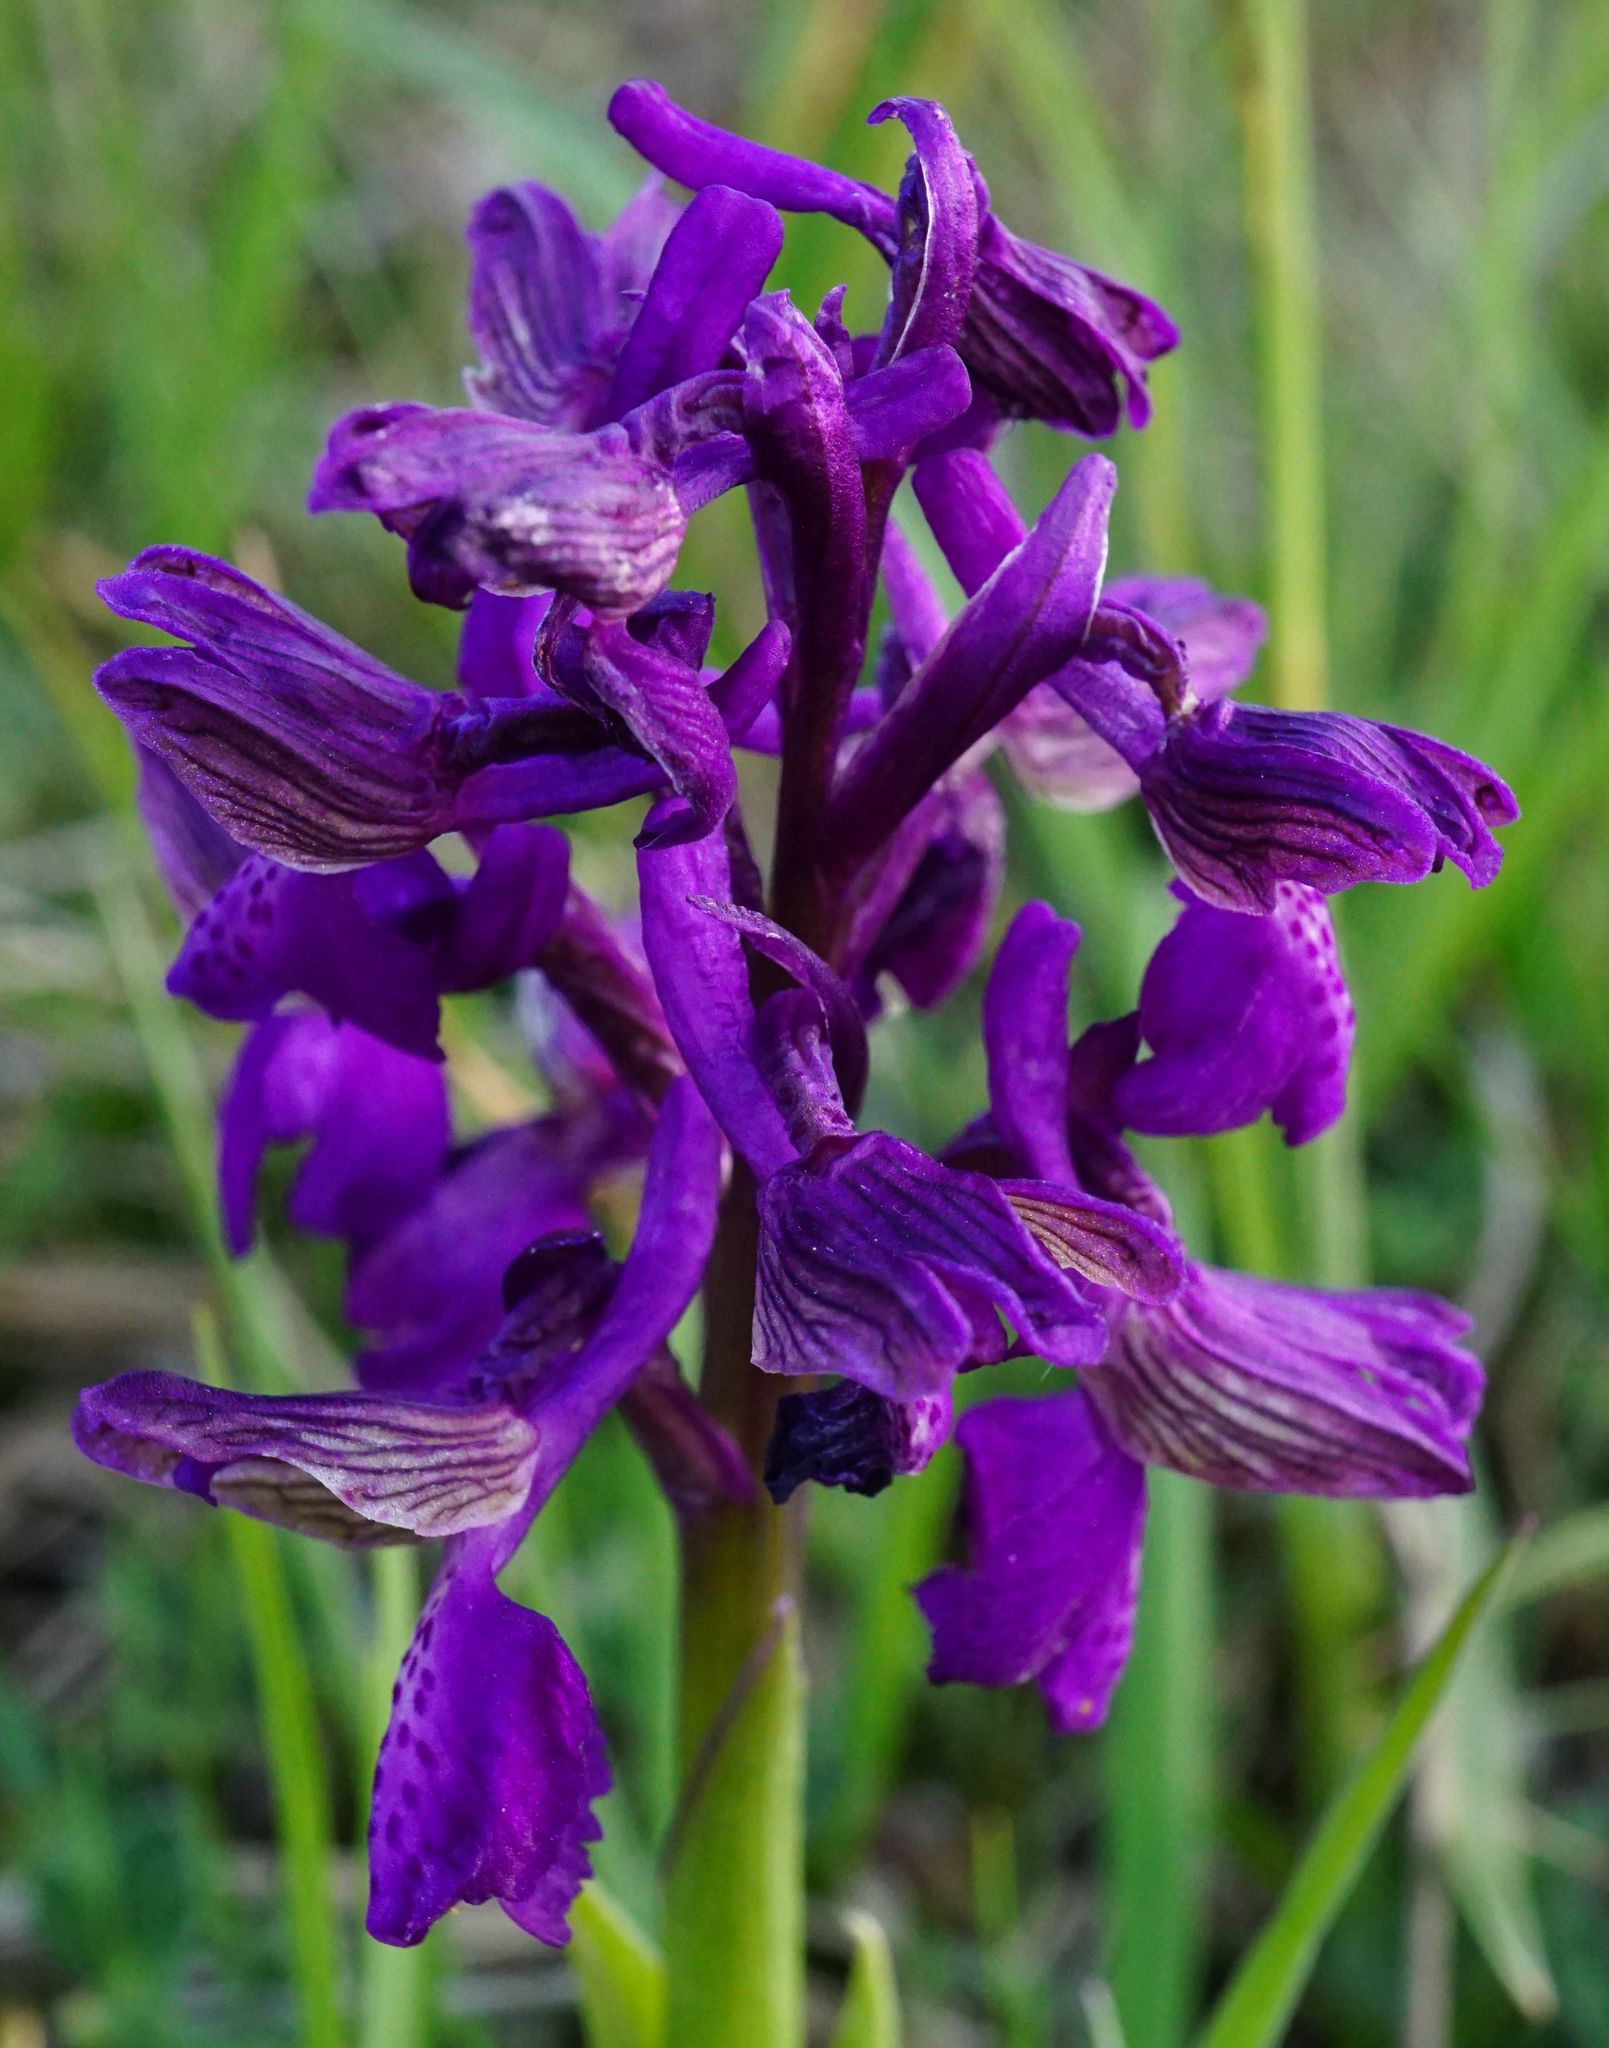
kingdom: Plantae
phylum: Tracheophyta
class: Liliopsida
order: Asparagales
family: Orchidaceae
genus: Anacamptis
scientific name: Anacamptis morio
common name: Green-winged orchid
